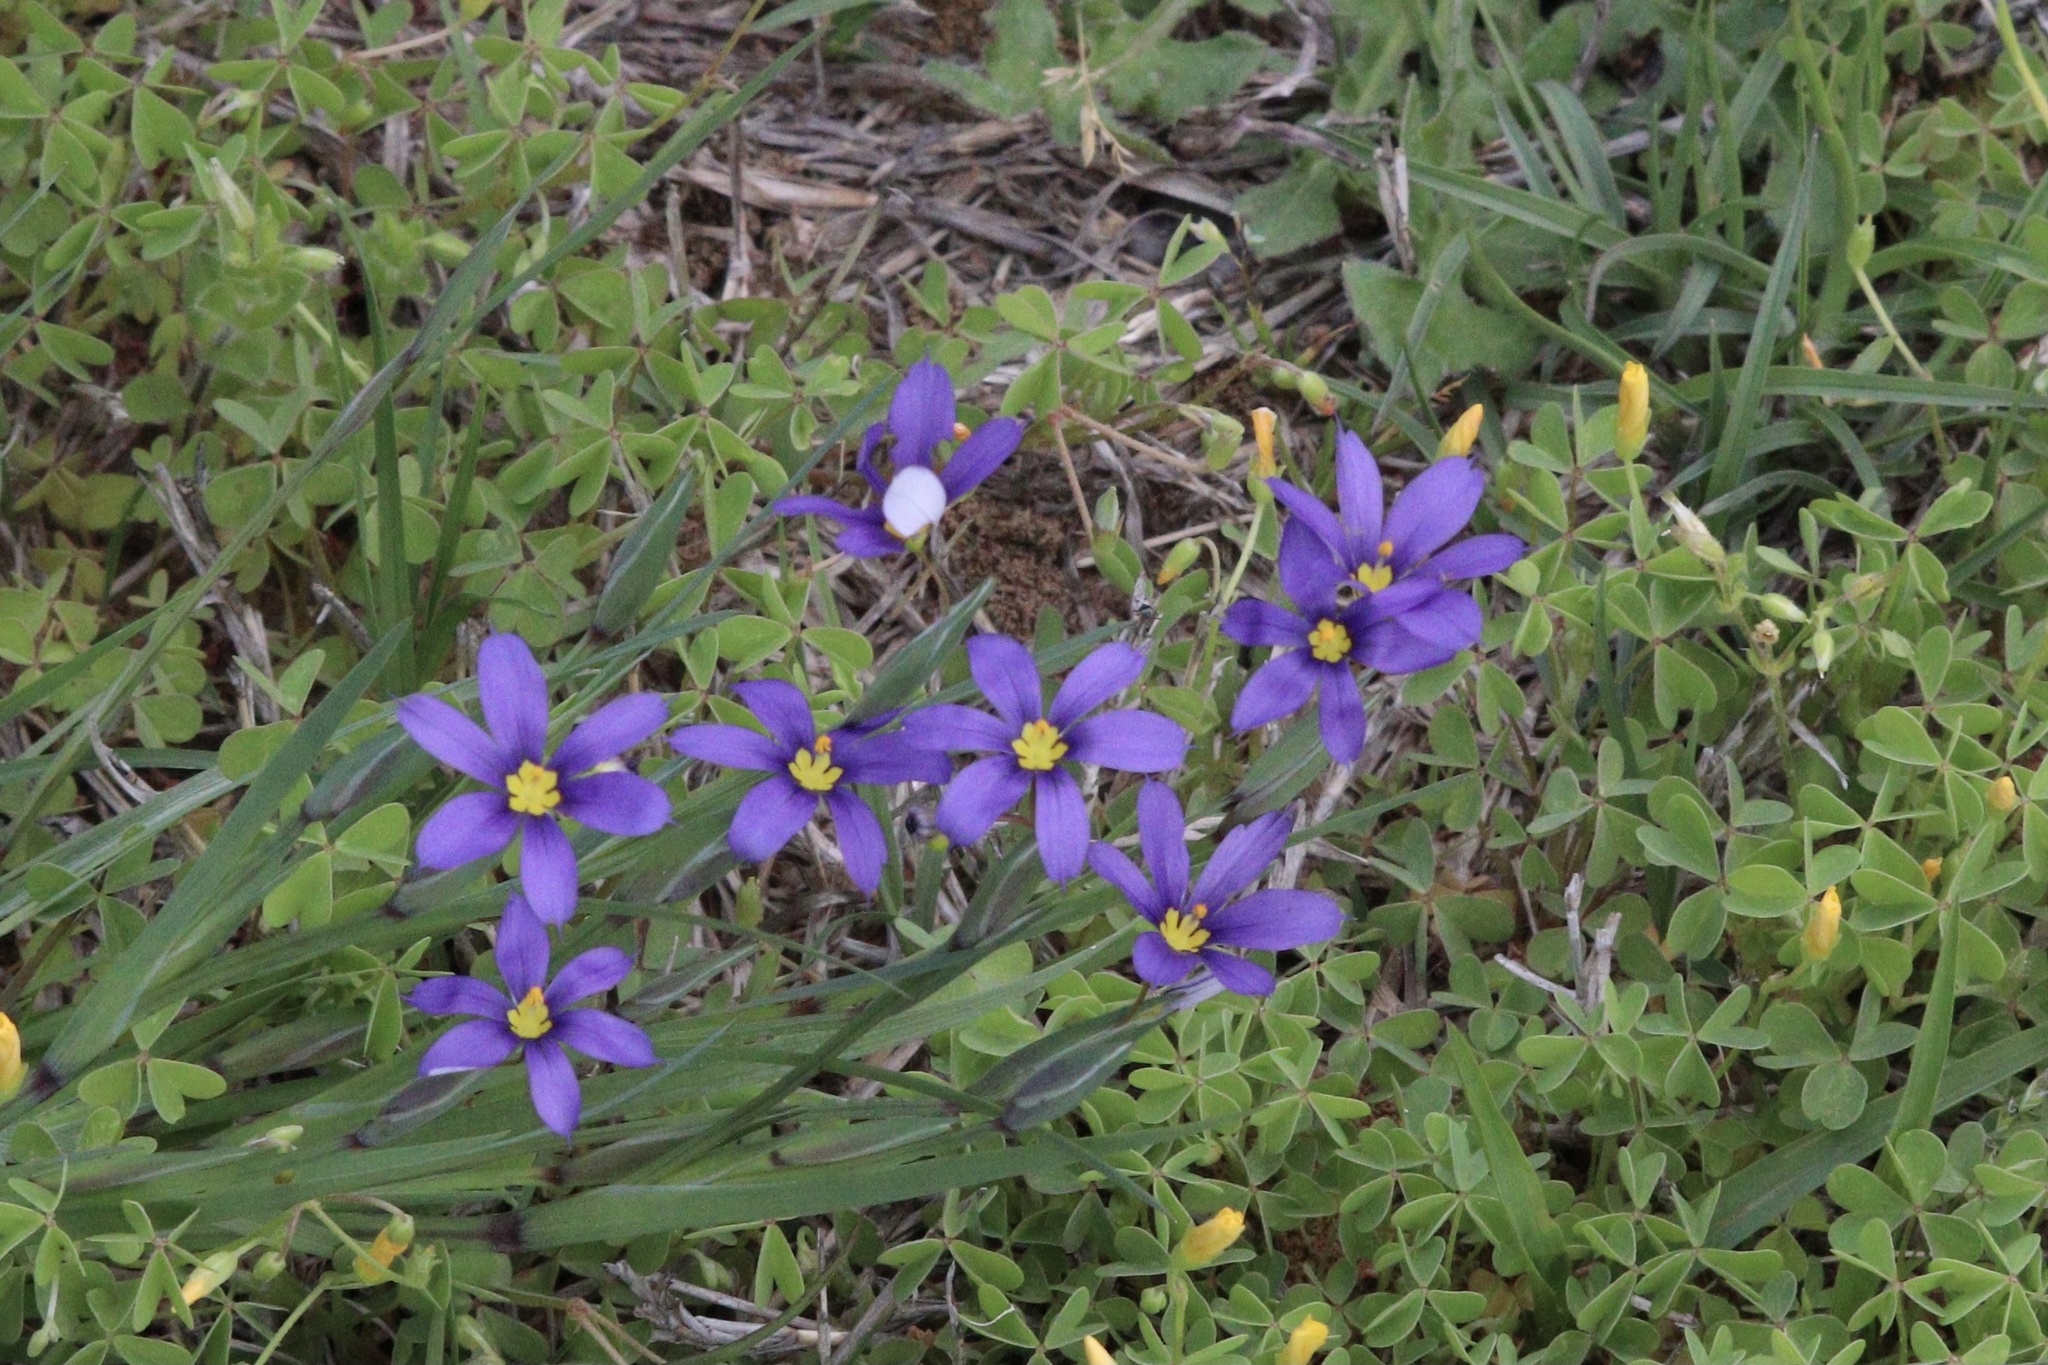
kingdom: Plantae
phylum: Tracheophyta
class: Liliopsida
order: Asparagales
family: Iridaceae
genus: Sisyrinchium
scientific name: Sisyrinchium pruinosum
